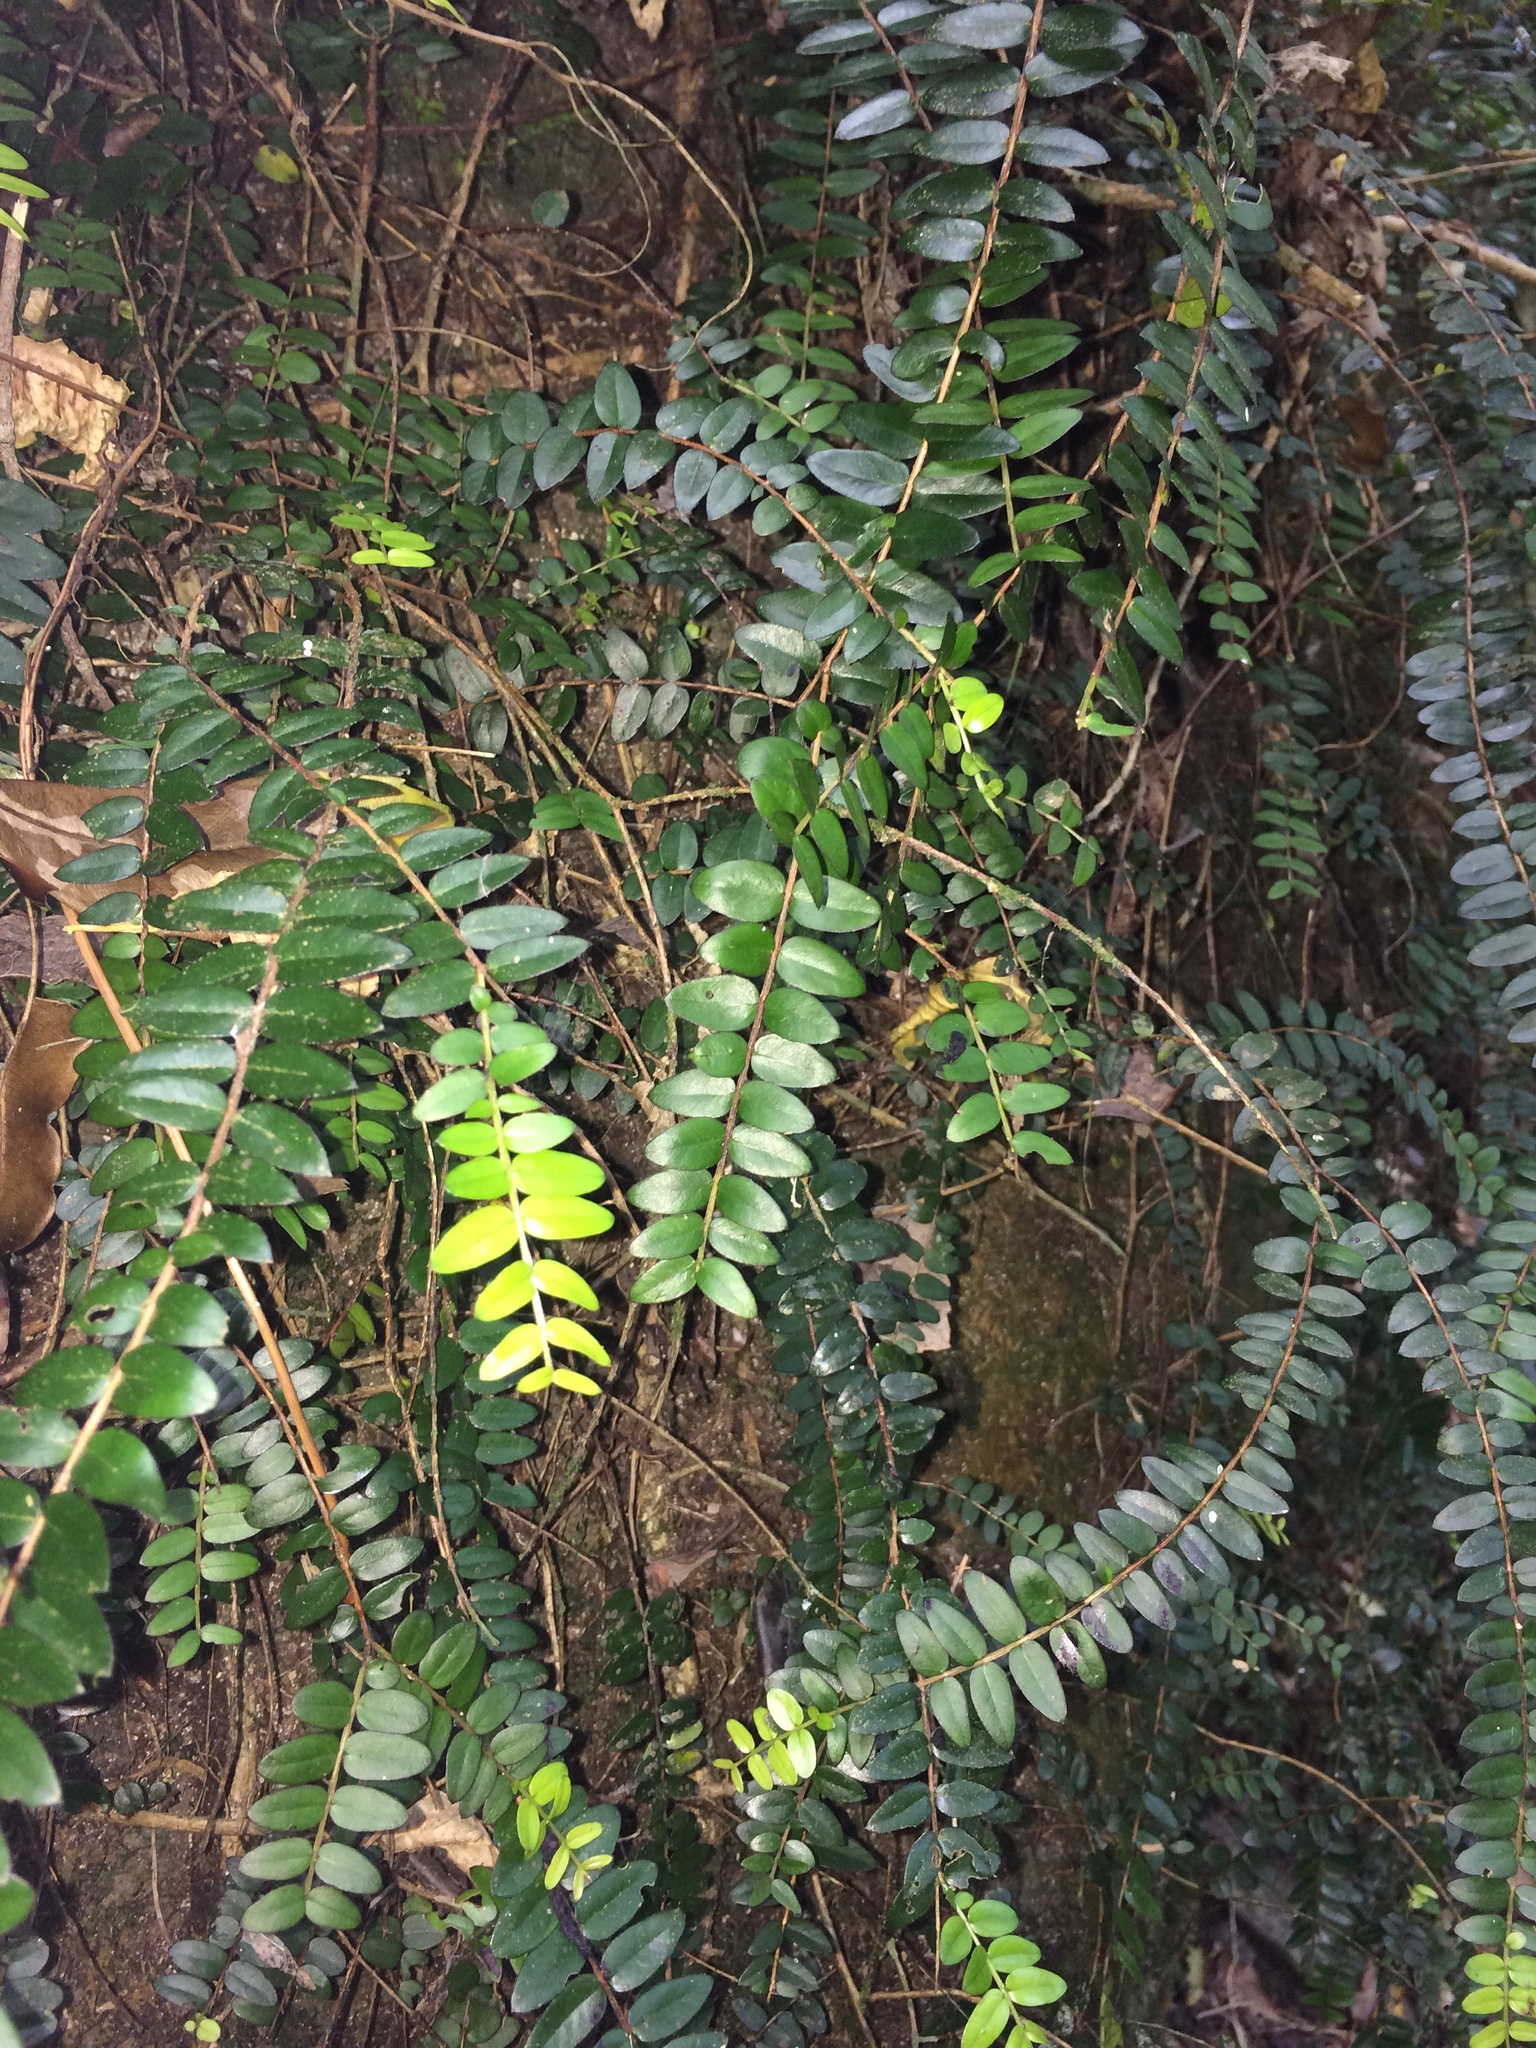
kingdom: Plantae
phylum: Tracheophyta
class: Magnoliopsida
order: Myrtales
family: Myrtaceae
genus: Metrosideros
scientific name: Metrosideros diffusa
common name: Small ratavine
